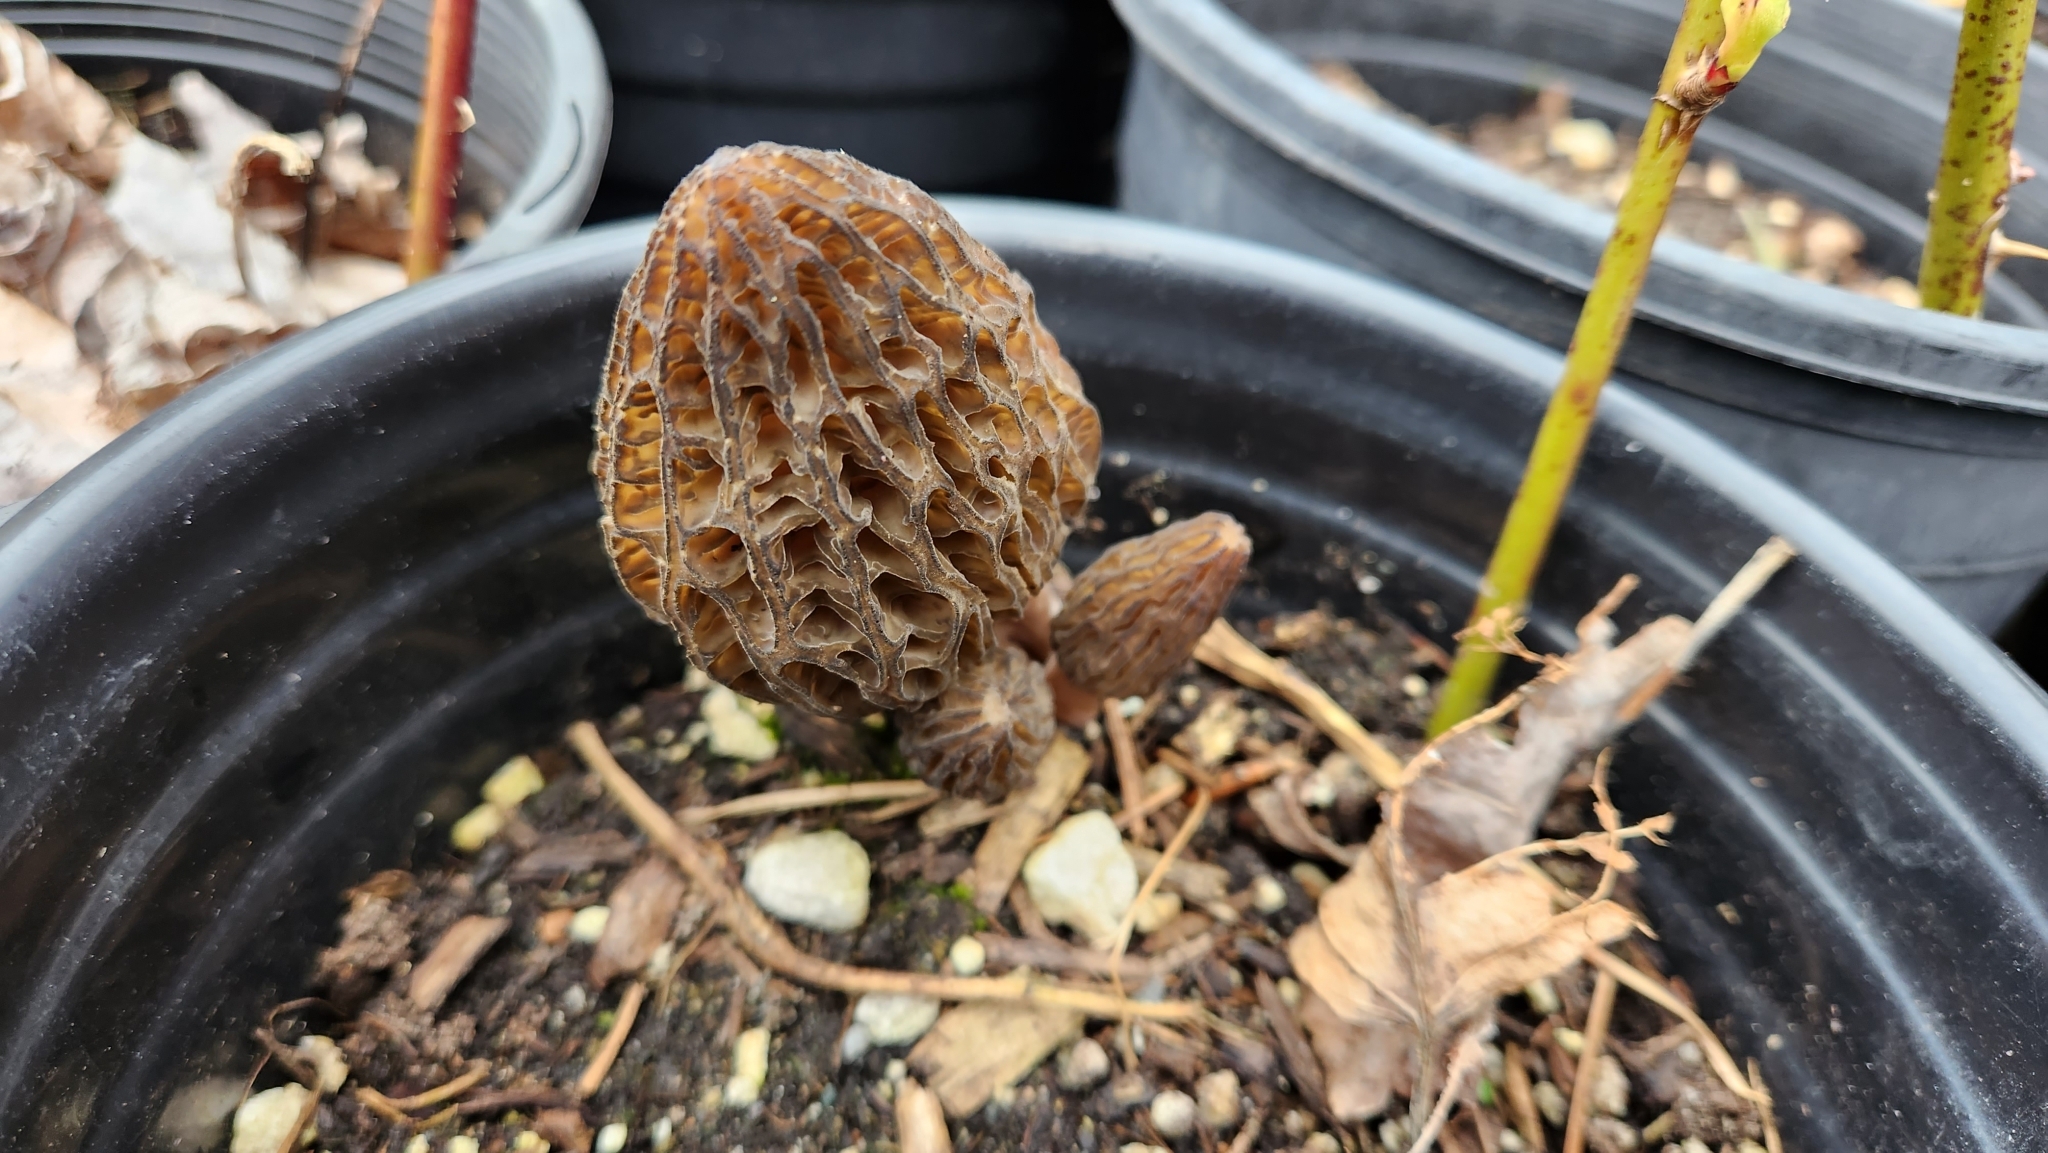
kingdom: Fungi
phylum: Ascomycota
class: Pezizomycetes
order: Pezizales
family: Morchellaceae
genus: Morchella
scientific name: Morchella importuna
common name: Landscaping black morel
